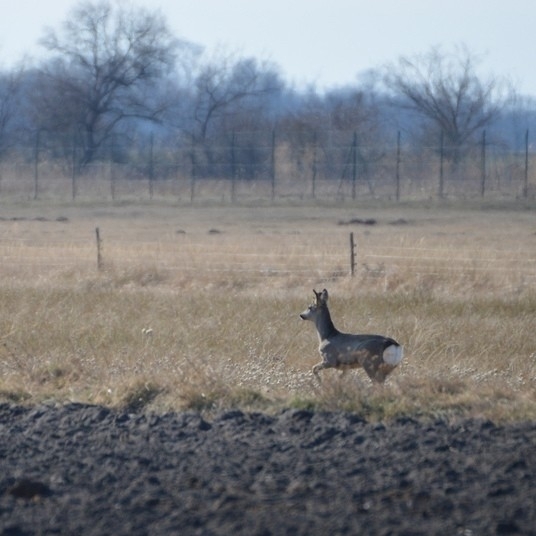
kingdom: Animalia
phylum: Chordata
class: Mammalia
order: Artiodactyla
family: Cervidae
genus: Capreolus
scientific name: Capreolus capreolus
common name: Western roe deer
